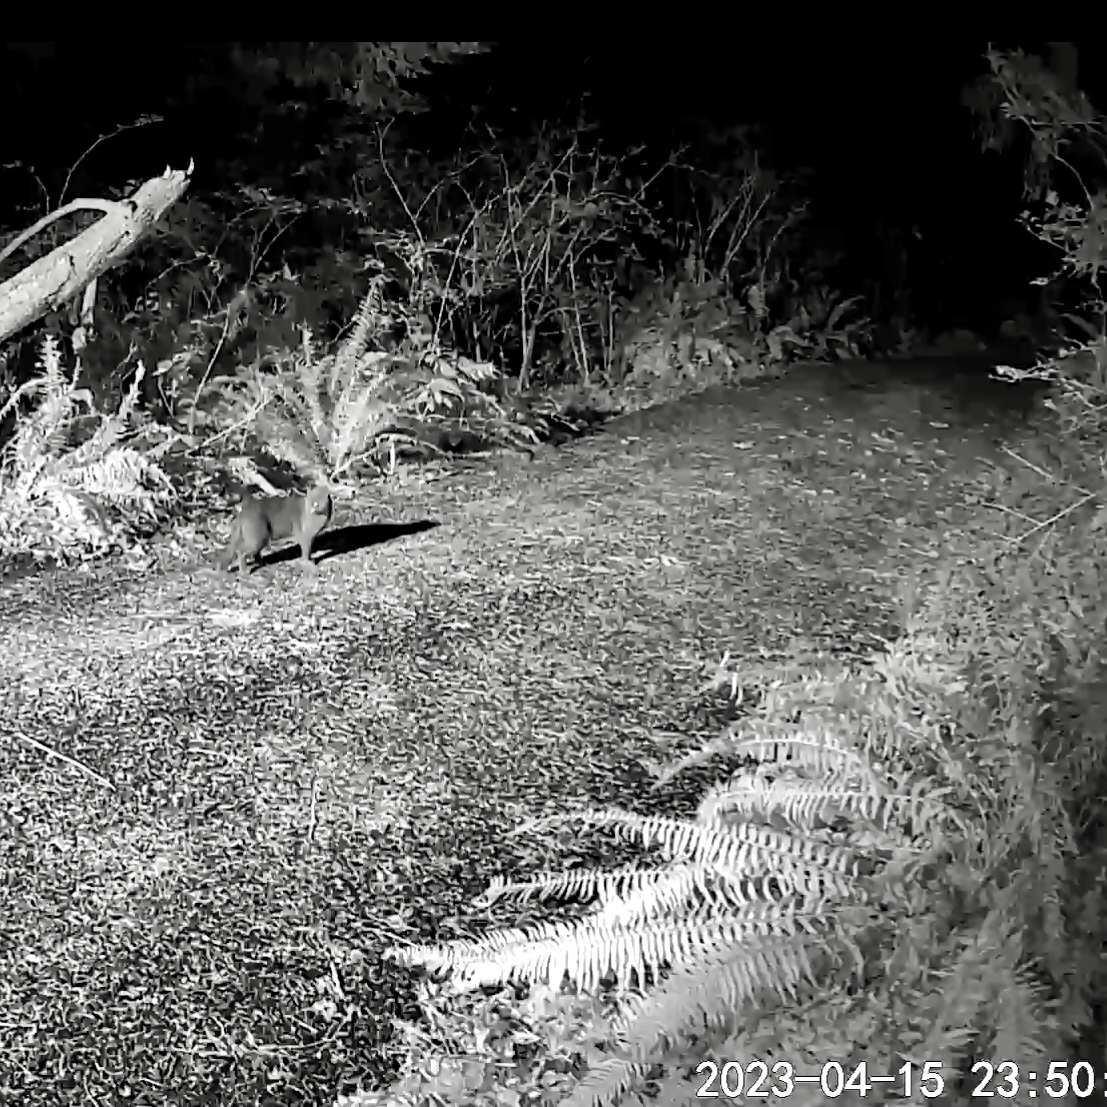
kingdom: Animalia
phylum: Chordata
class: Mammalia
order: Carnivora
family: Felidae
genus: Felis
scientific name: Felis catus
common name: Domestic cat
